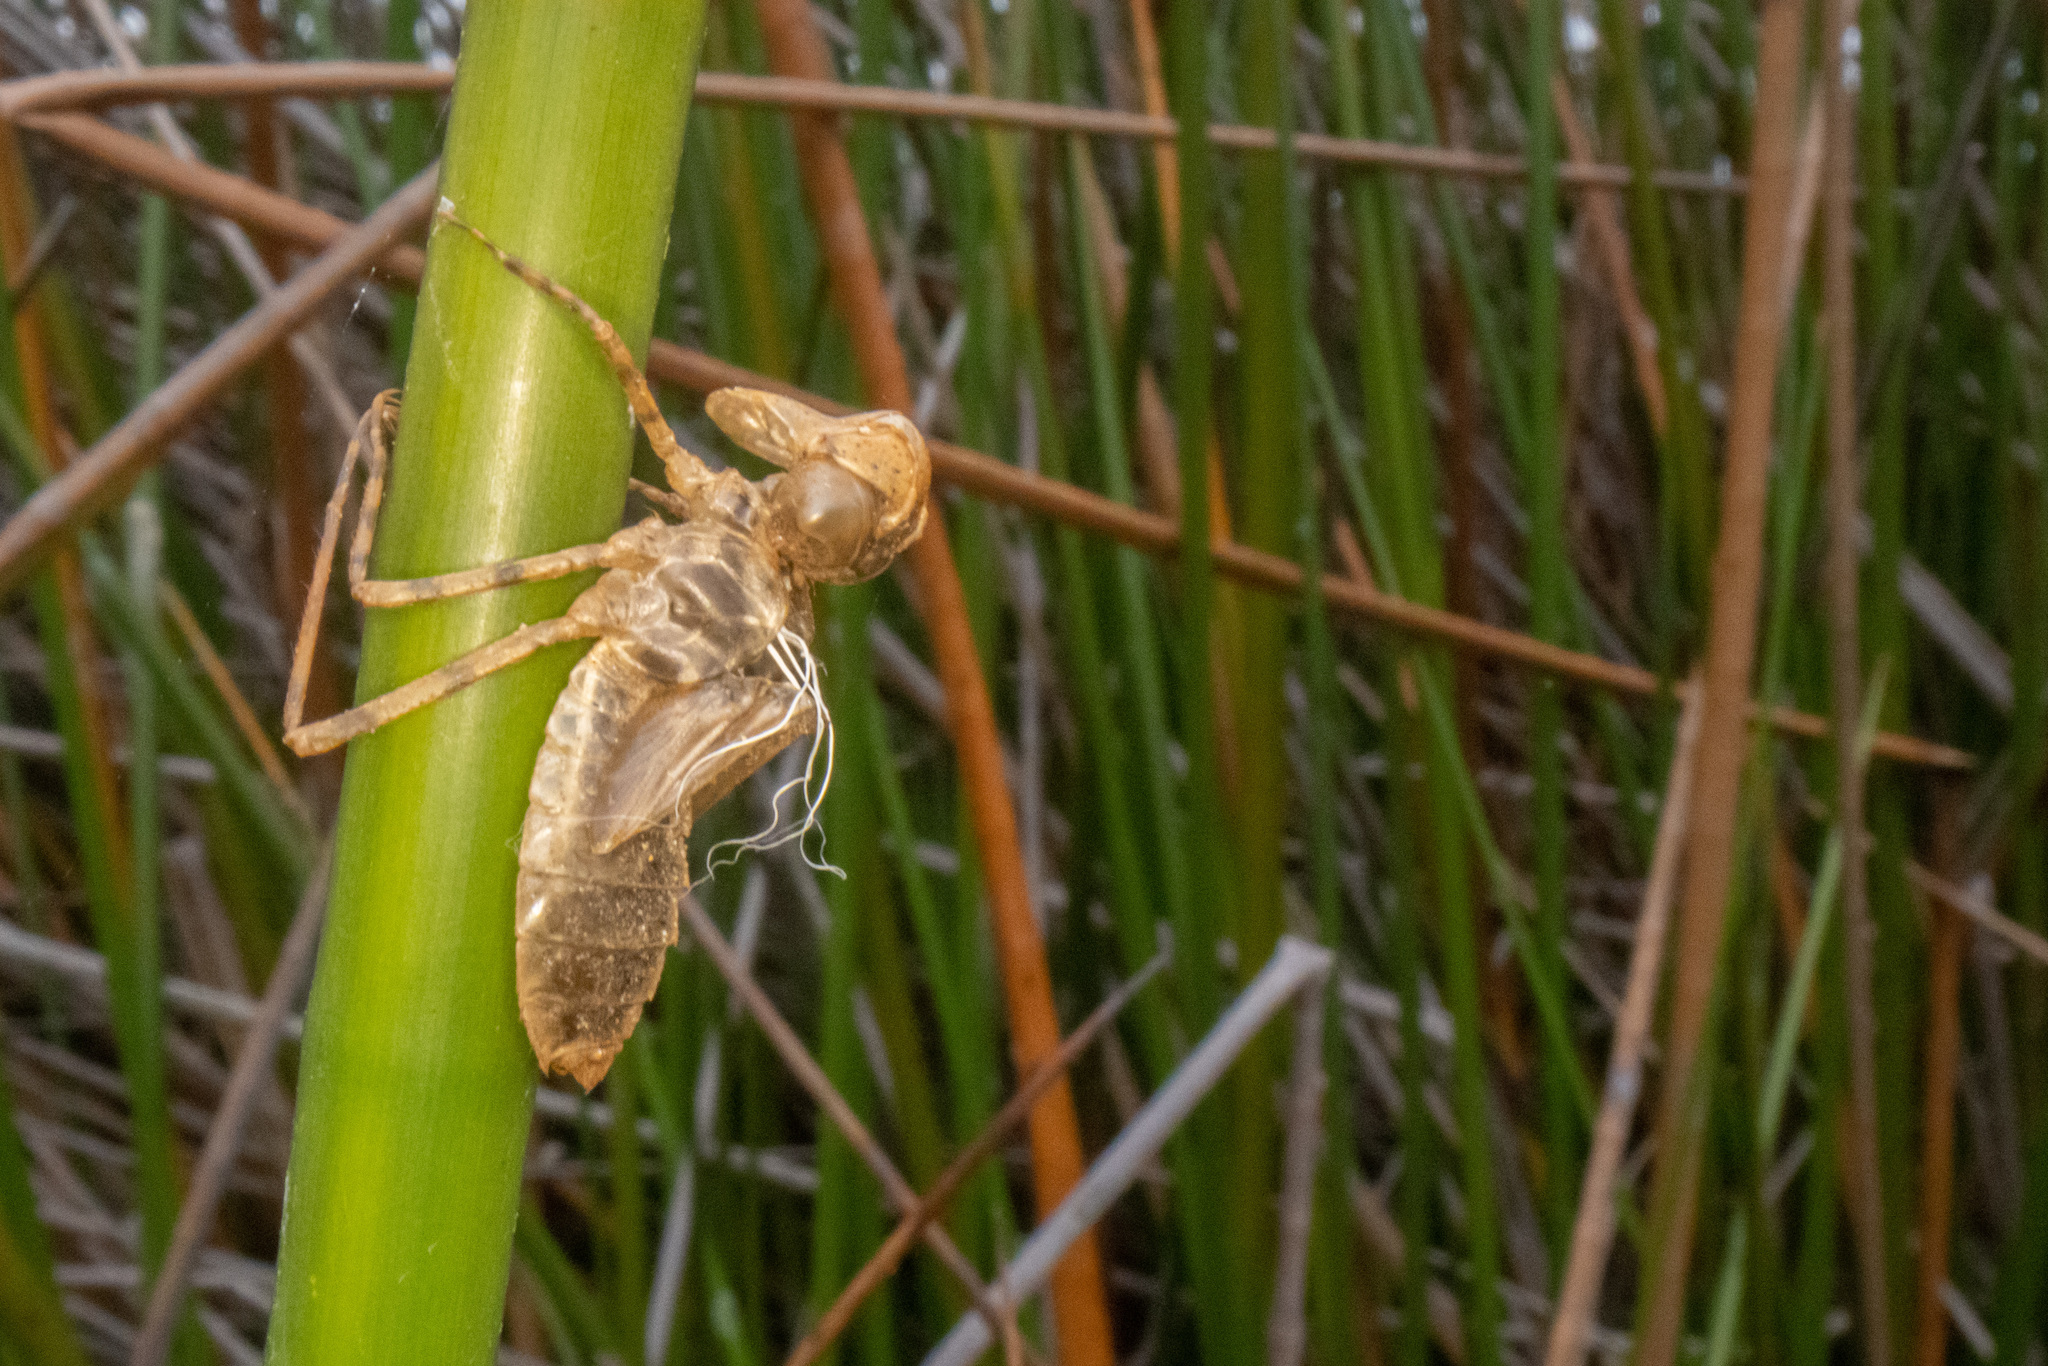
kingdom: Animalia
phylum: Arthropoda
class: Insecta
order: Odonata
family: Corduliidae
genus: Procordulia
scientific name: Procordulia grayi
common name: Yellow spotted dragonfly
